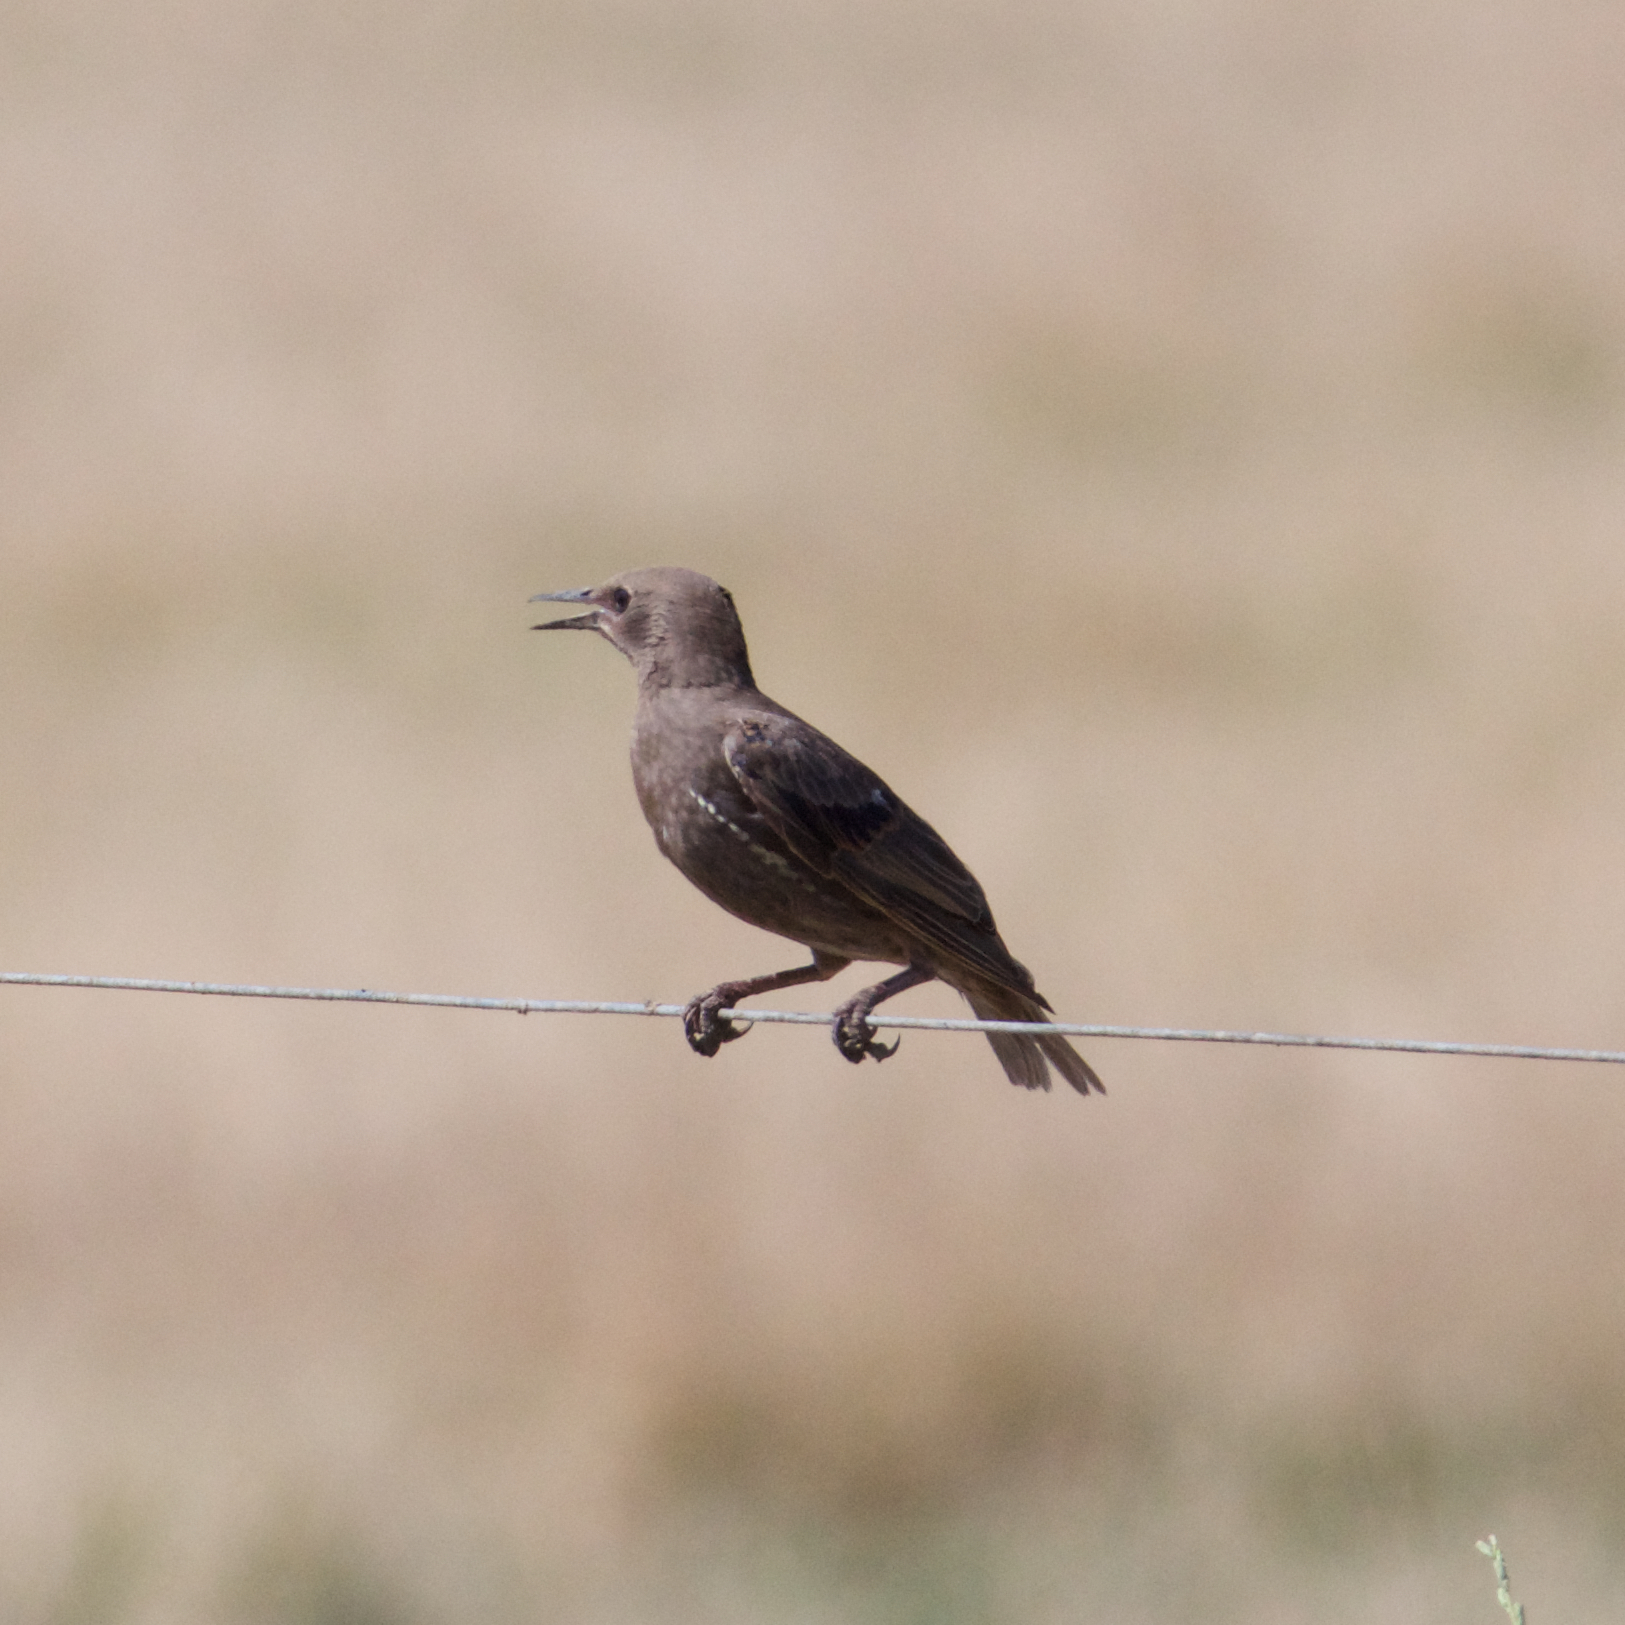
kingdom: Animalia
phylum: Chordata
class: Aves
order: Passeriformes
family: Sturnidae
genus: Sturnus
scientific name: Sturnus vulgaris
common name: Common starling
